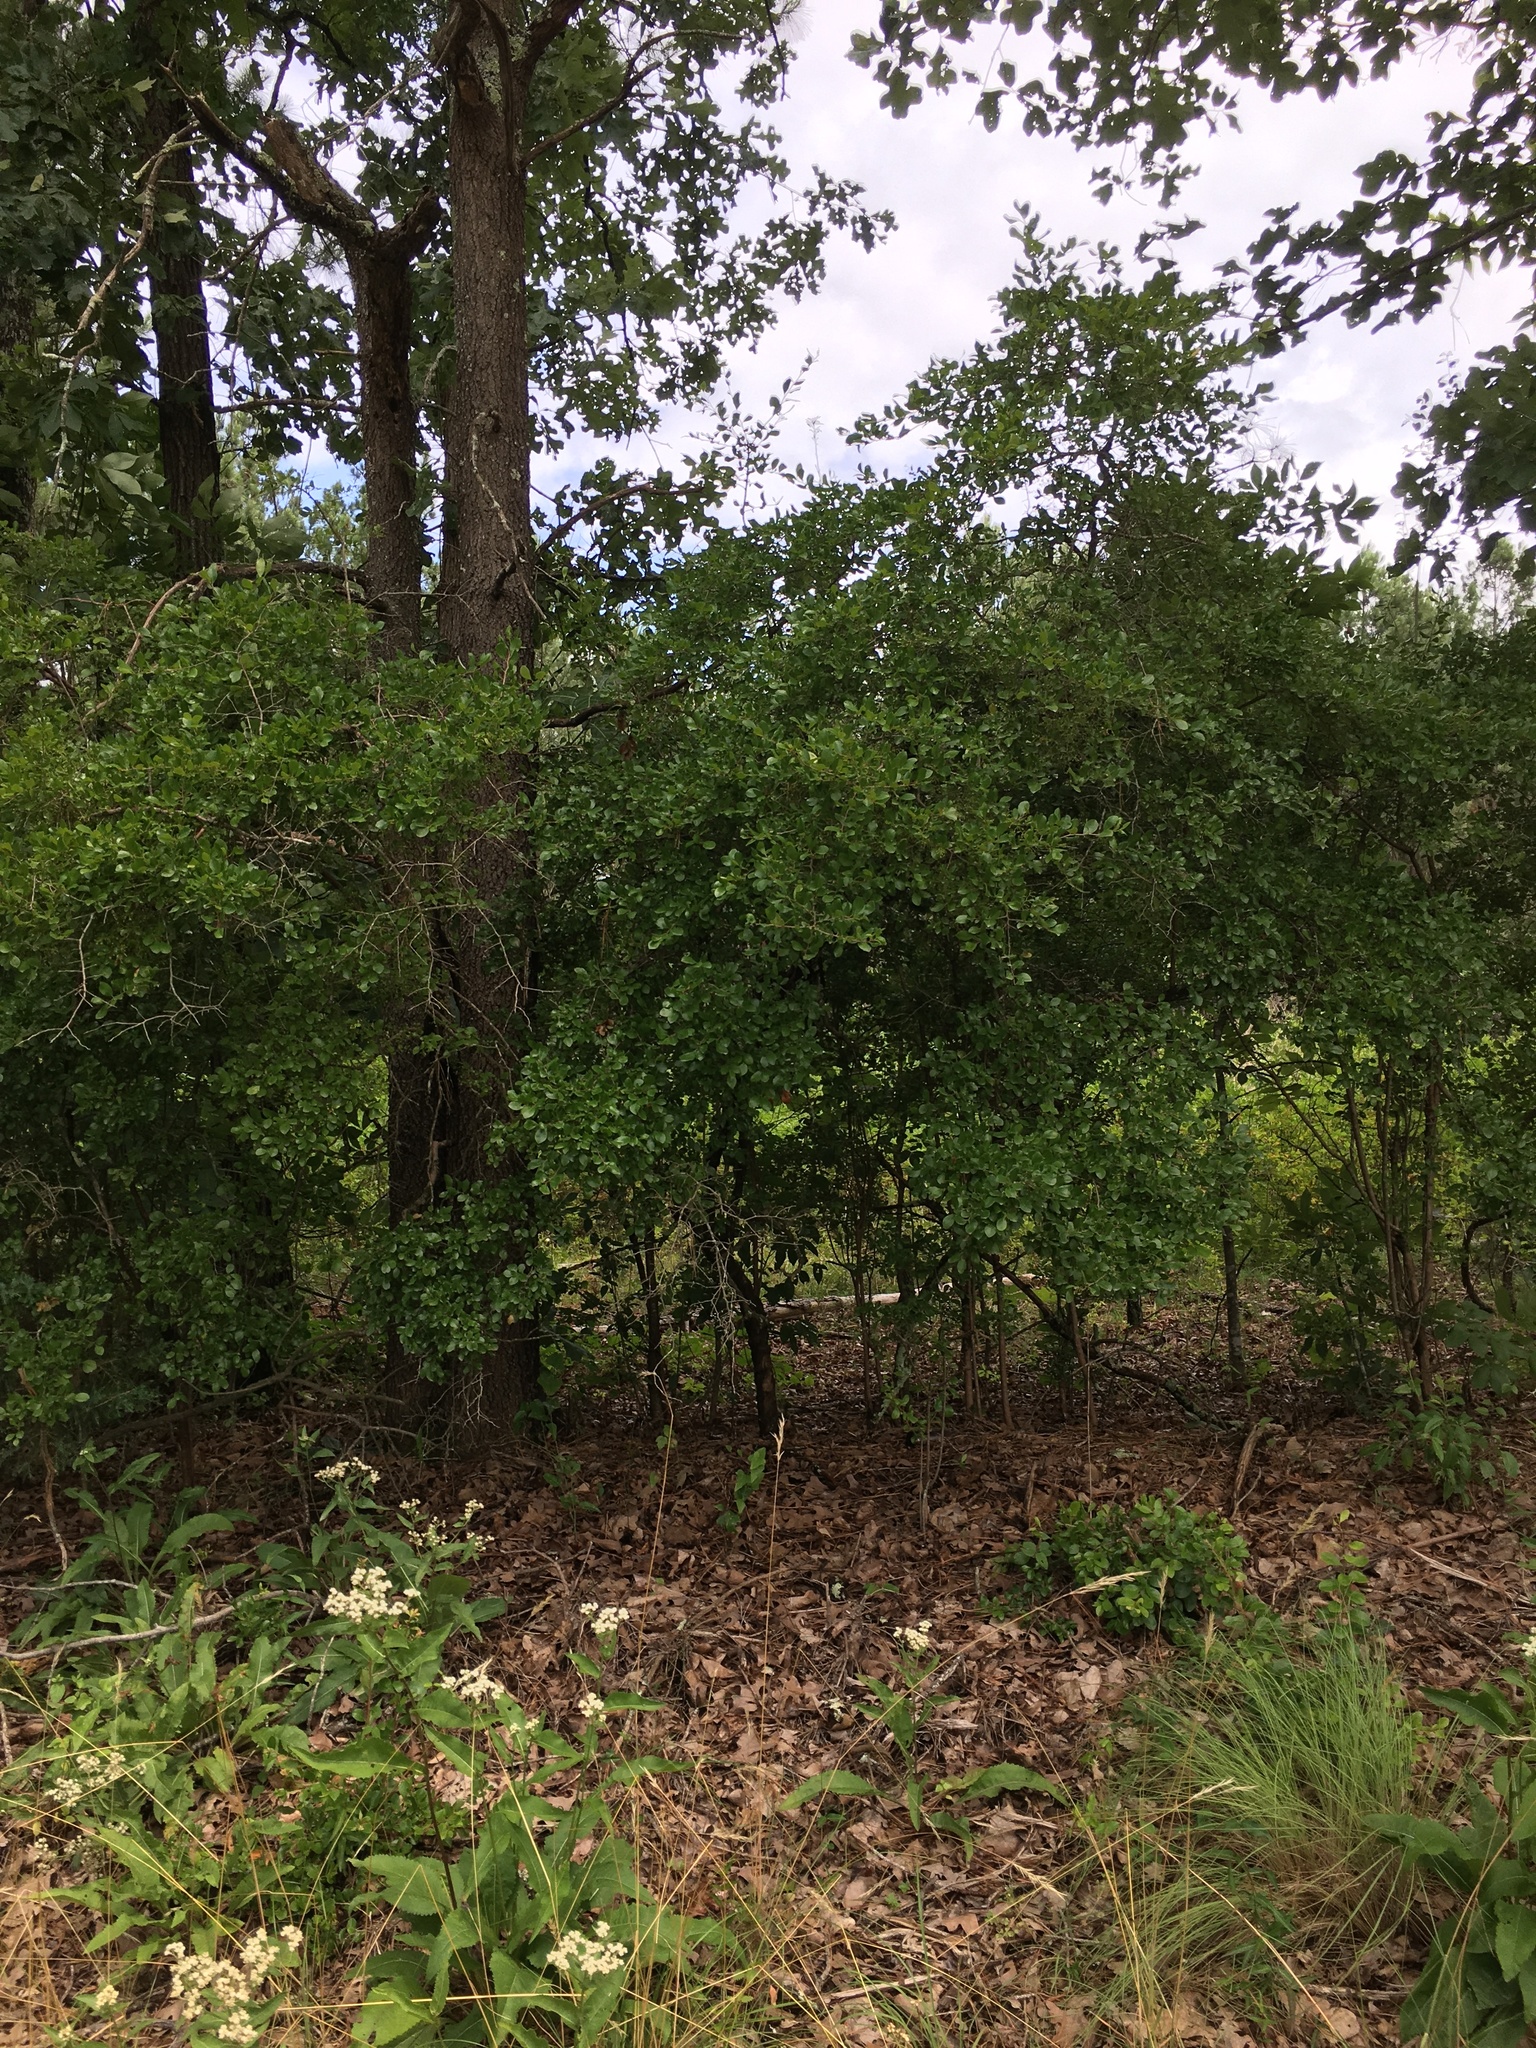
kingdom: Plantae
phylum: Tracheophyta
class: Magnoliopsida
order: Ericales
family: Ericaceae
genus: Vaccinium
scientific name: Vaccinium arboreum
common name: Farkleberry
